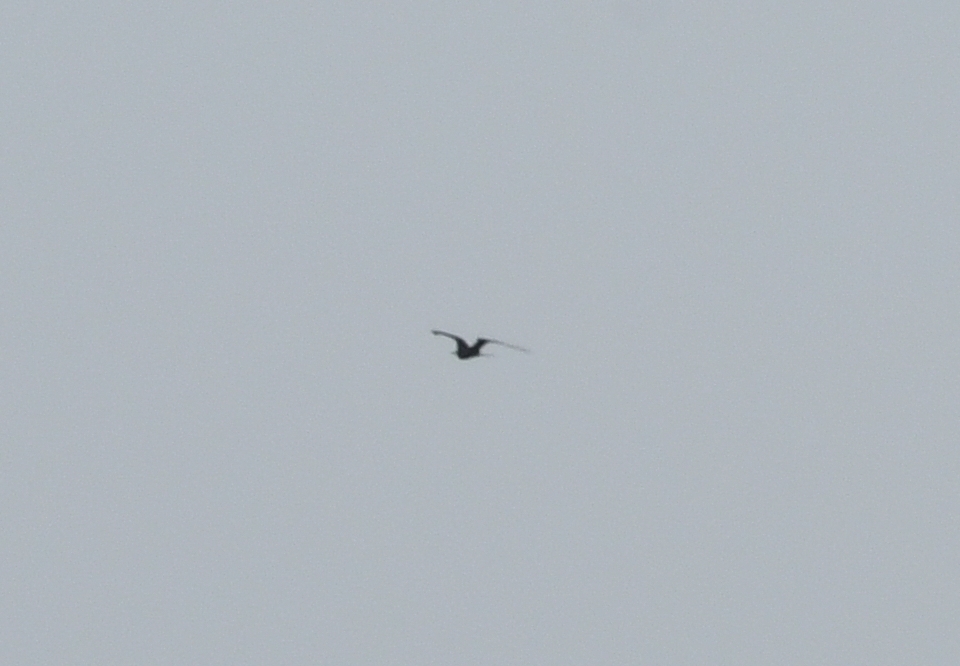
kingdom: Animalia
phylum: Chordata
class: Aves
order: Suliformes
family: Fregatidae
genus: Fregata
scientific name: Fregata magnificens
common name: Magnificent frigatebird
